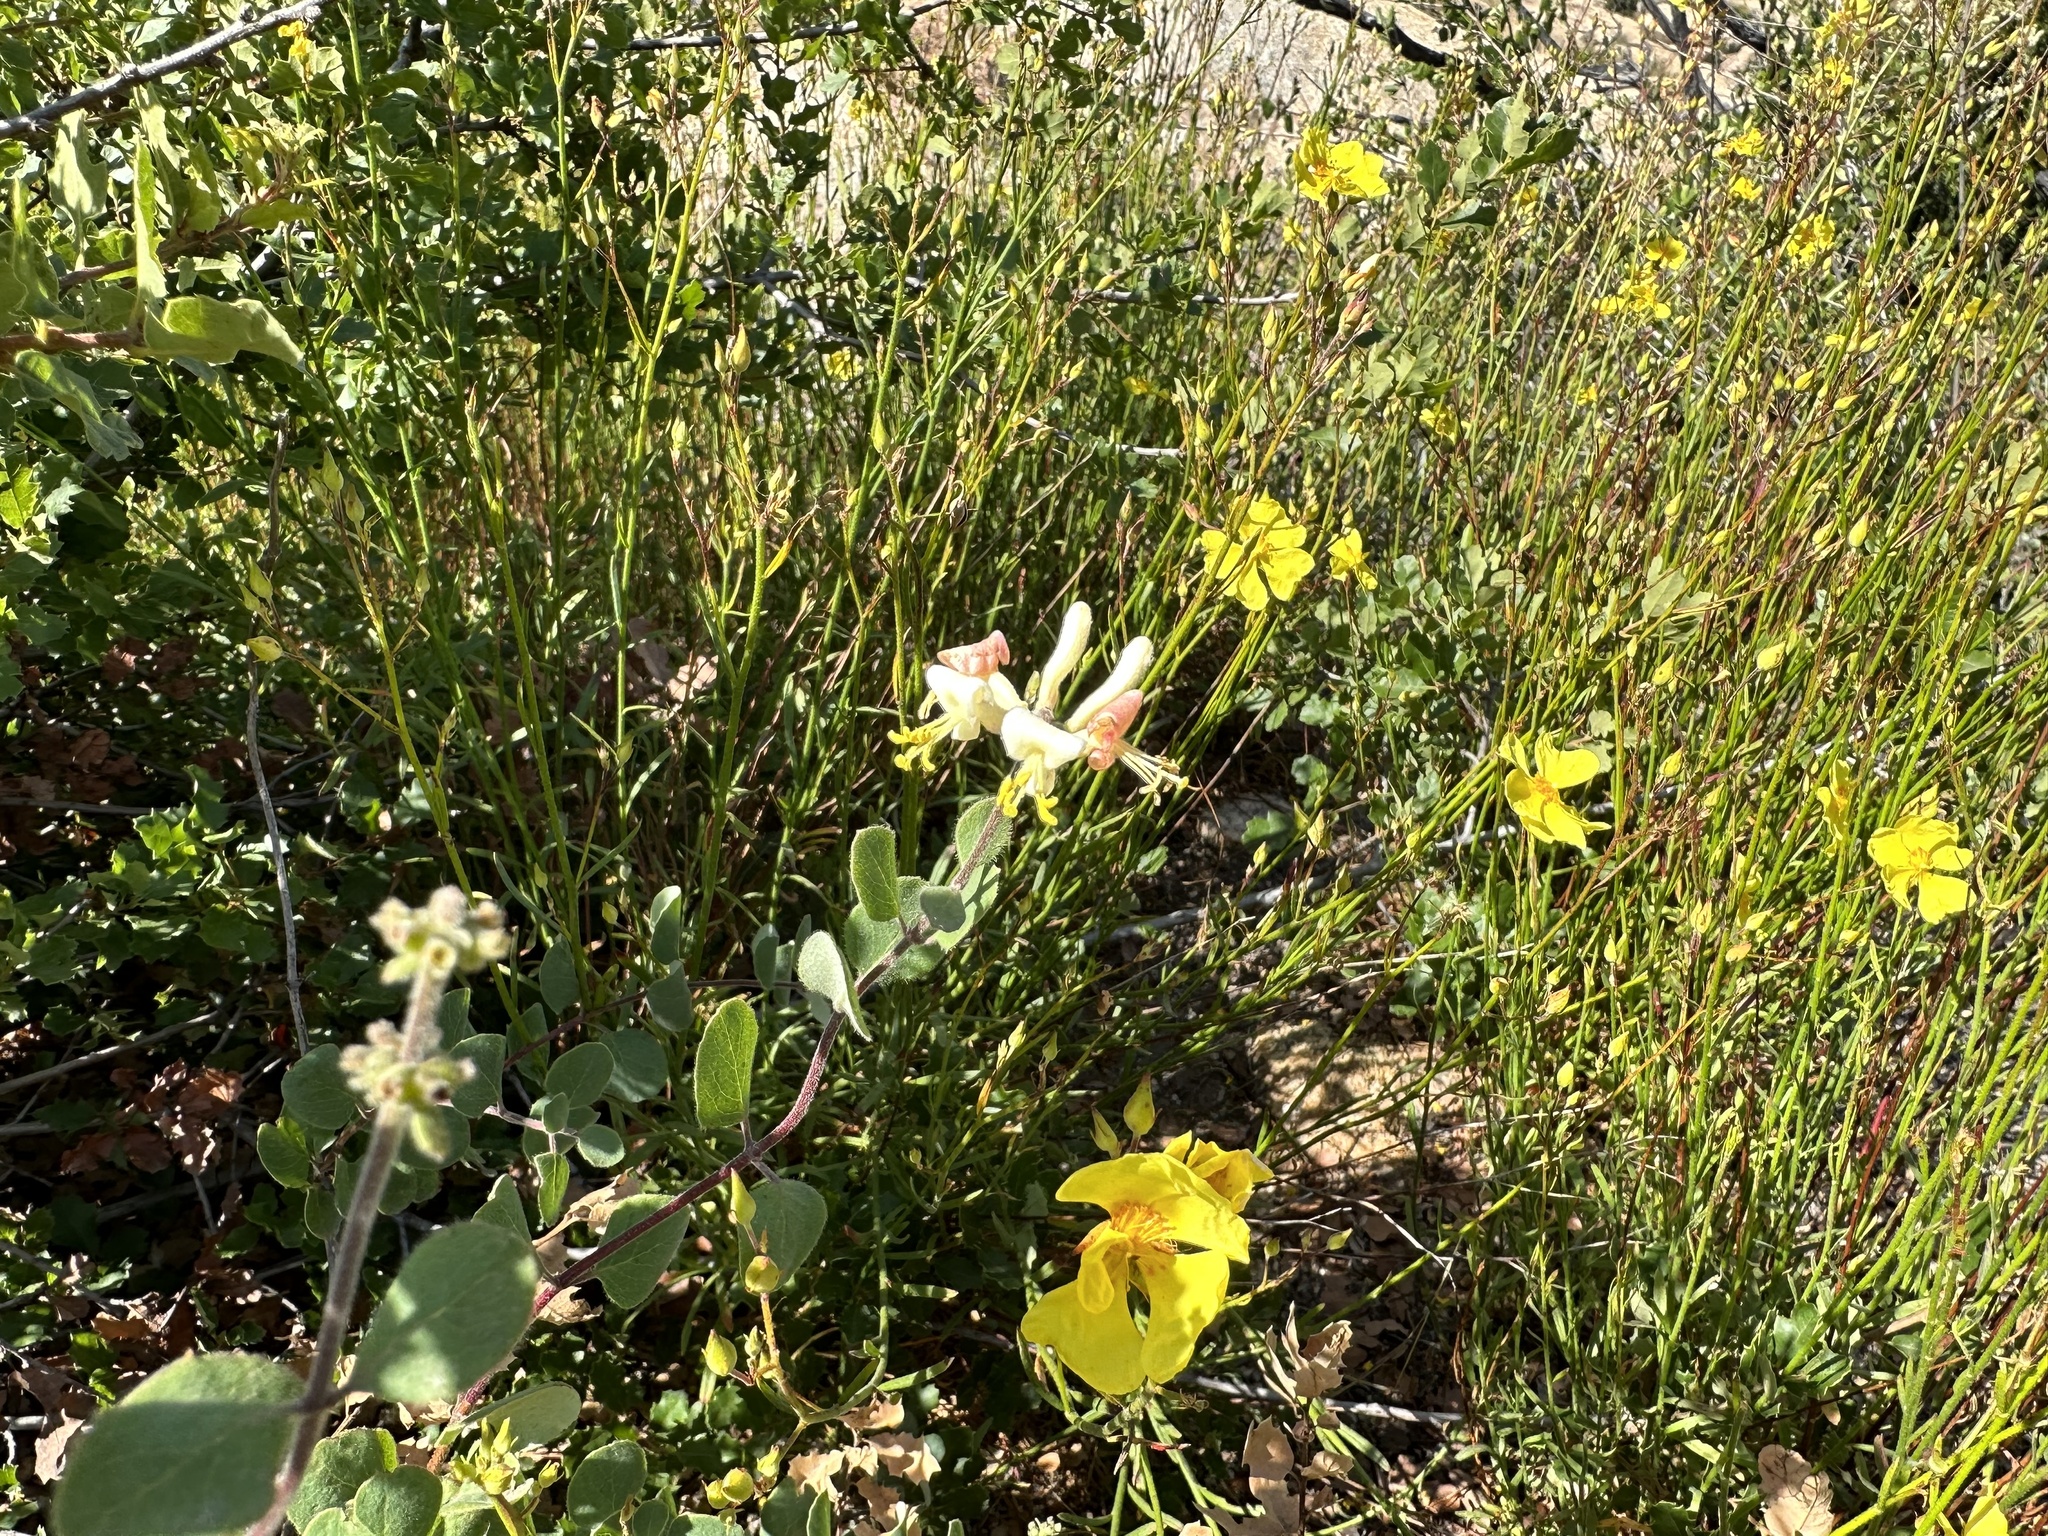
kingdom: Plantae
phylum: Tracheophyta
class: Magnoliopsida
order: Dipsacales
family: Caprifoliaceae
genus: Lonicera
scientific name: Lonicera subspicata
